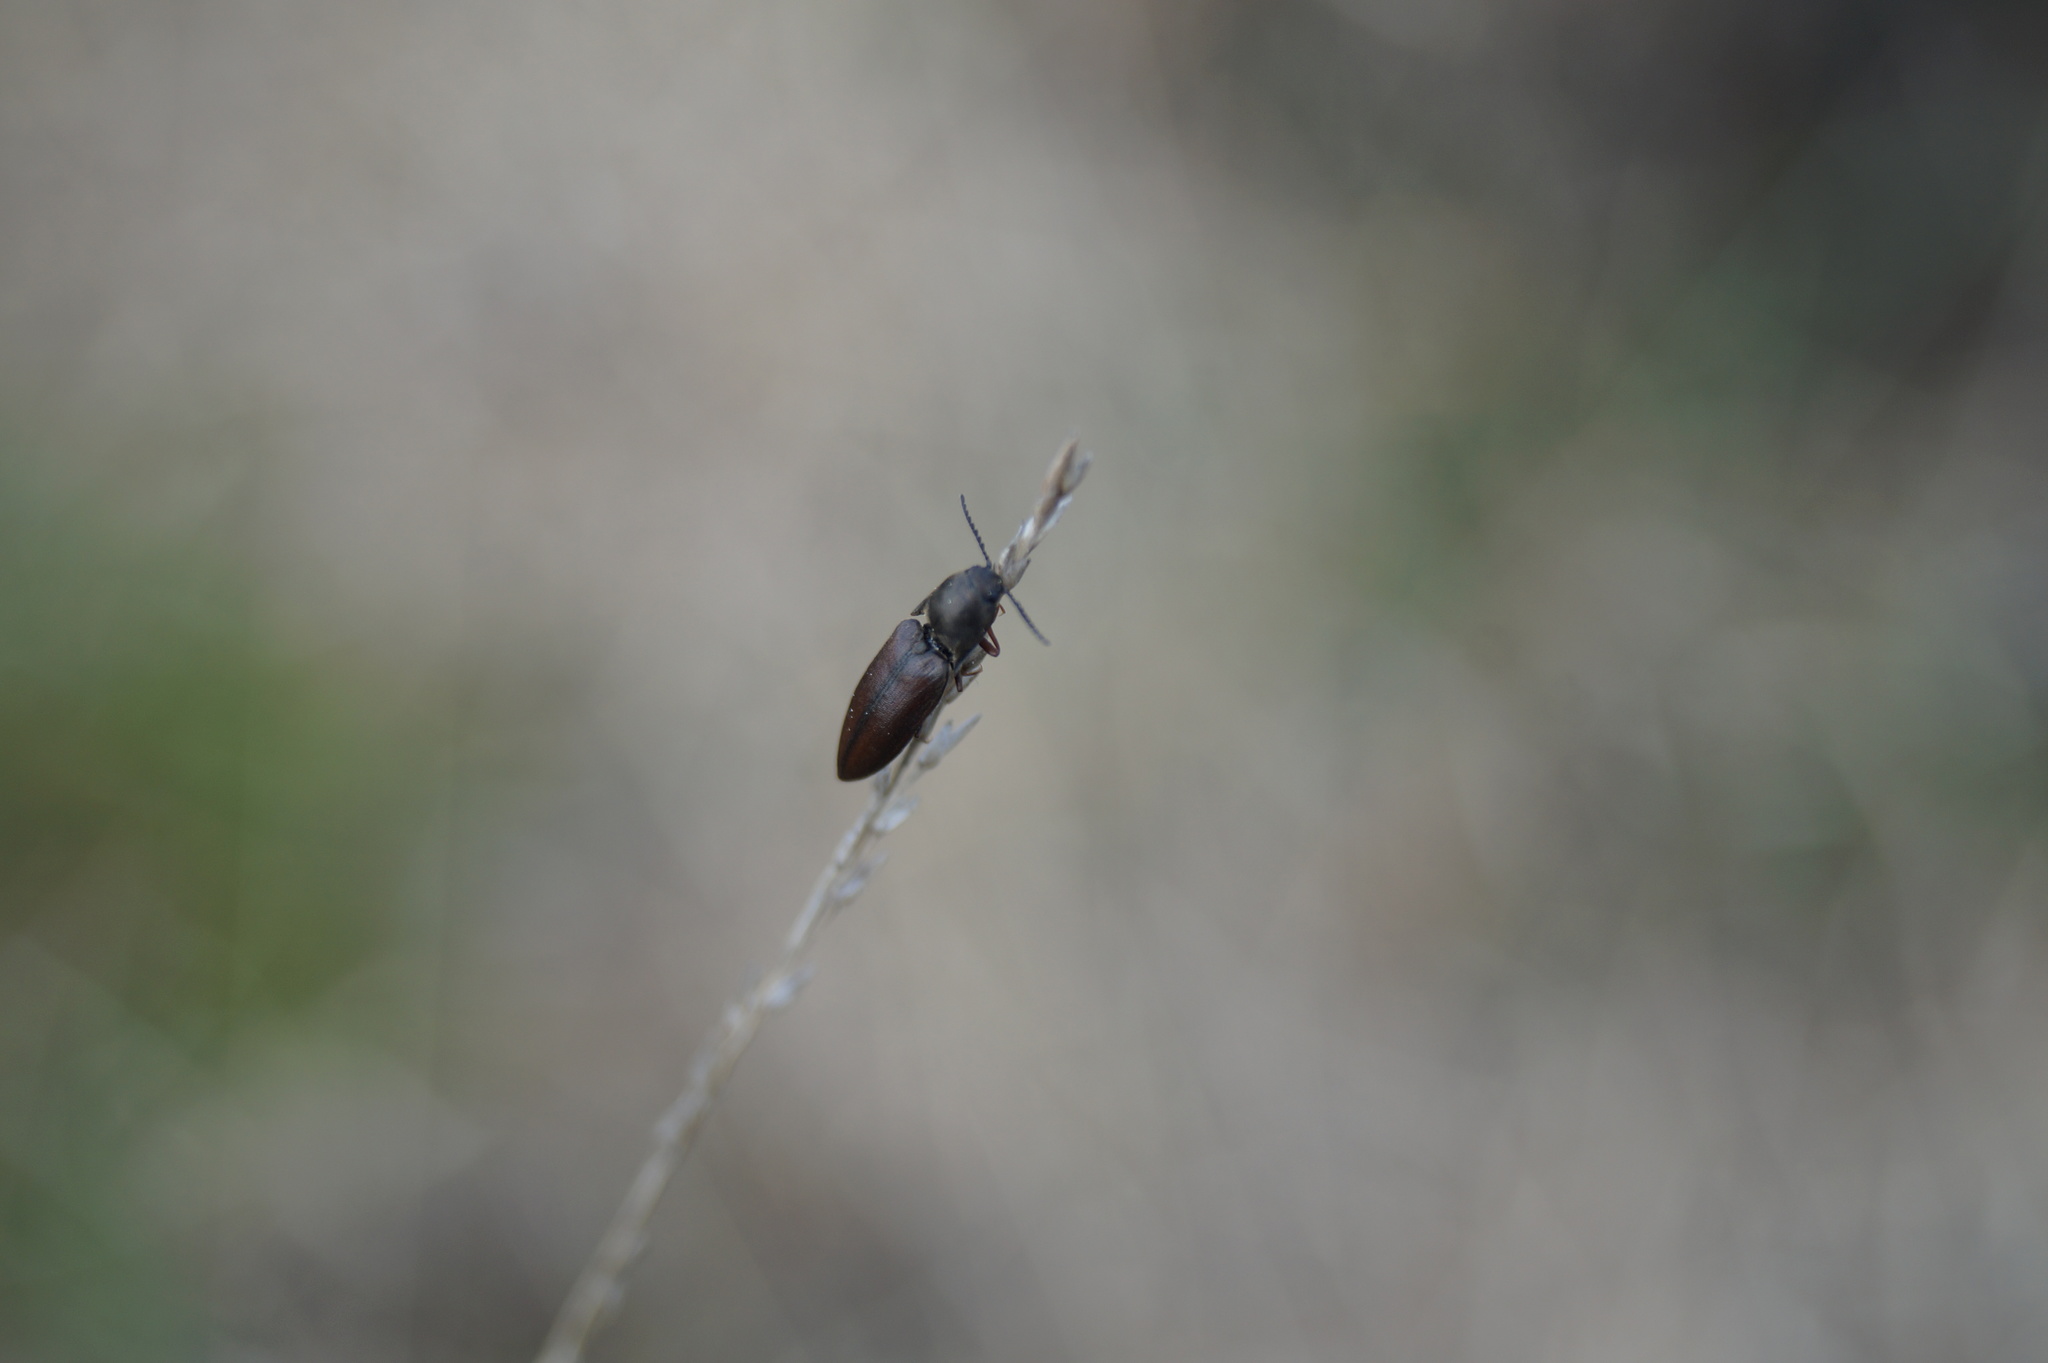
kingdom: Animalia
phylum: Arthropoda
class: Insecta
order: Coleoptera
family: Elateridae
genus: Sericus
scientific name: Sericus brunneus
